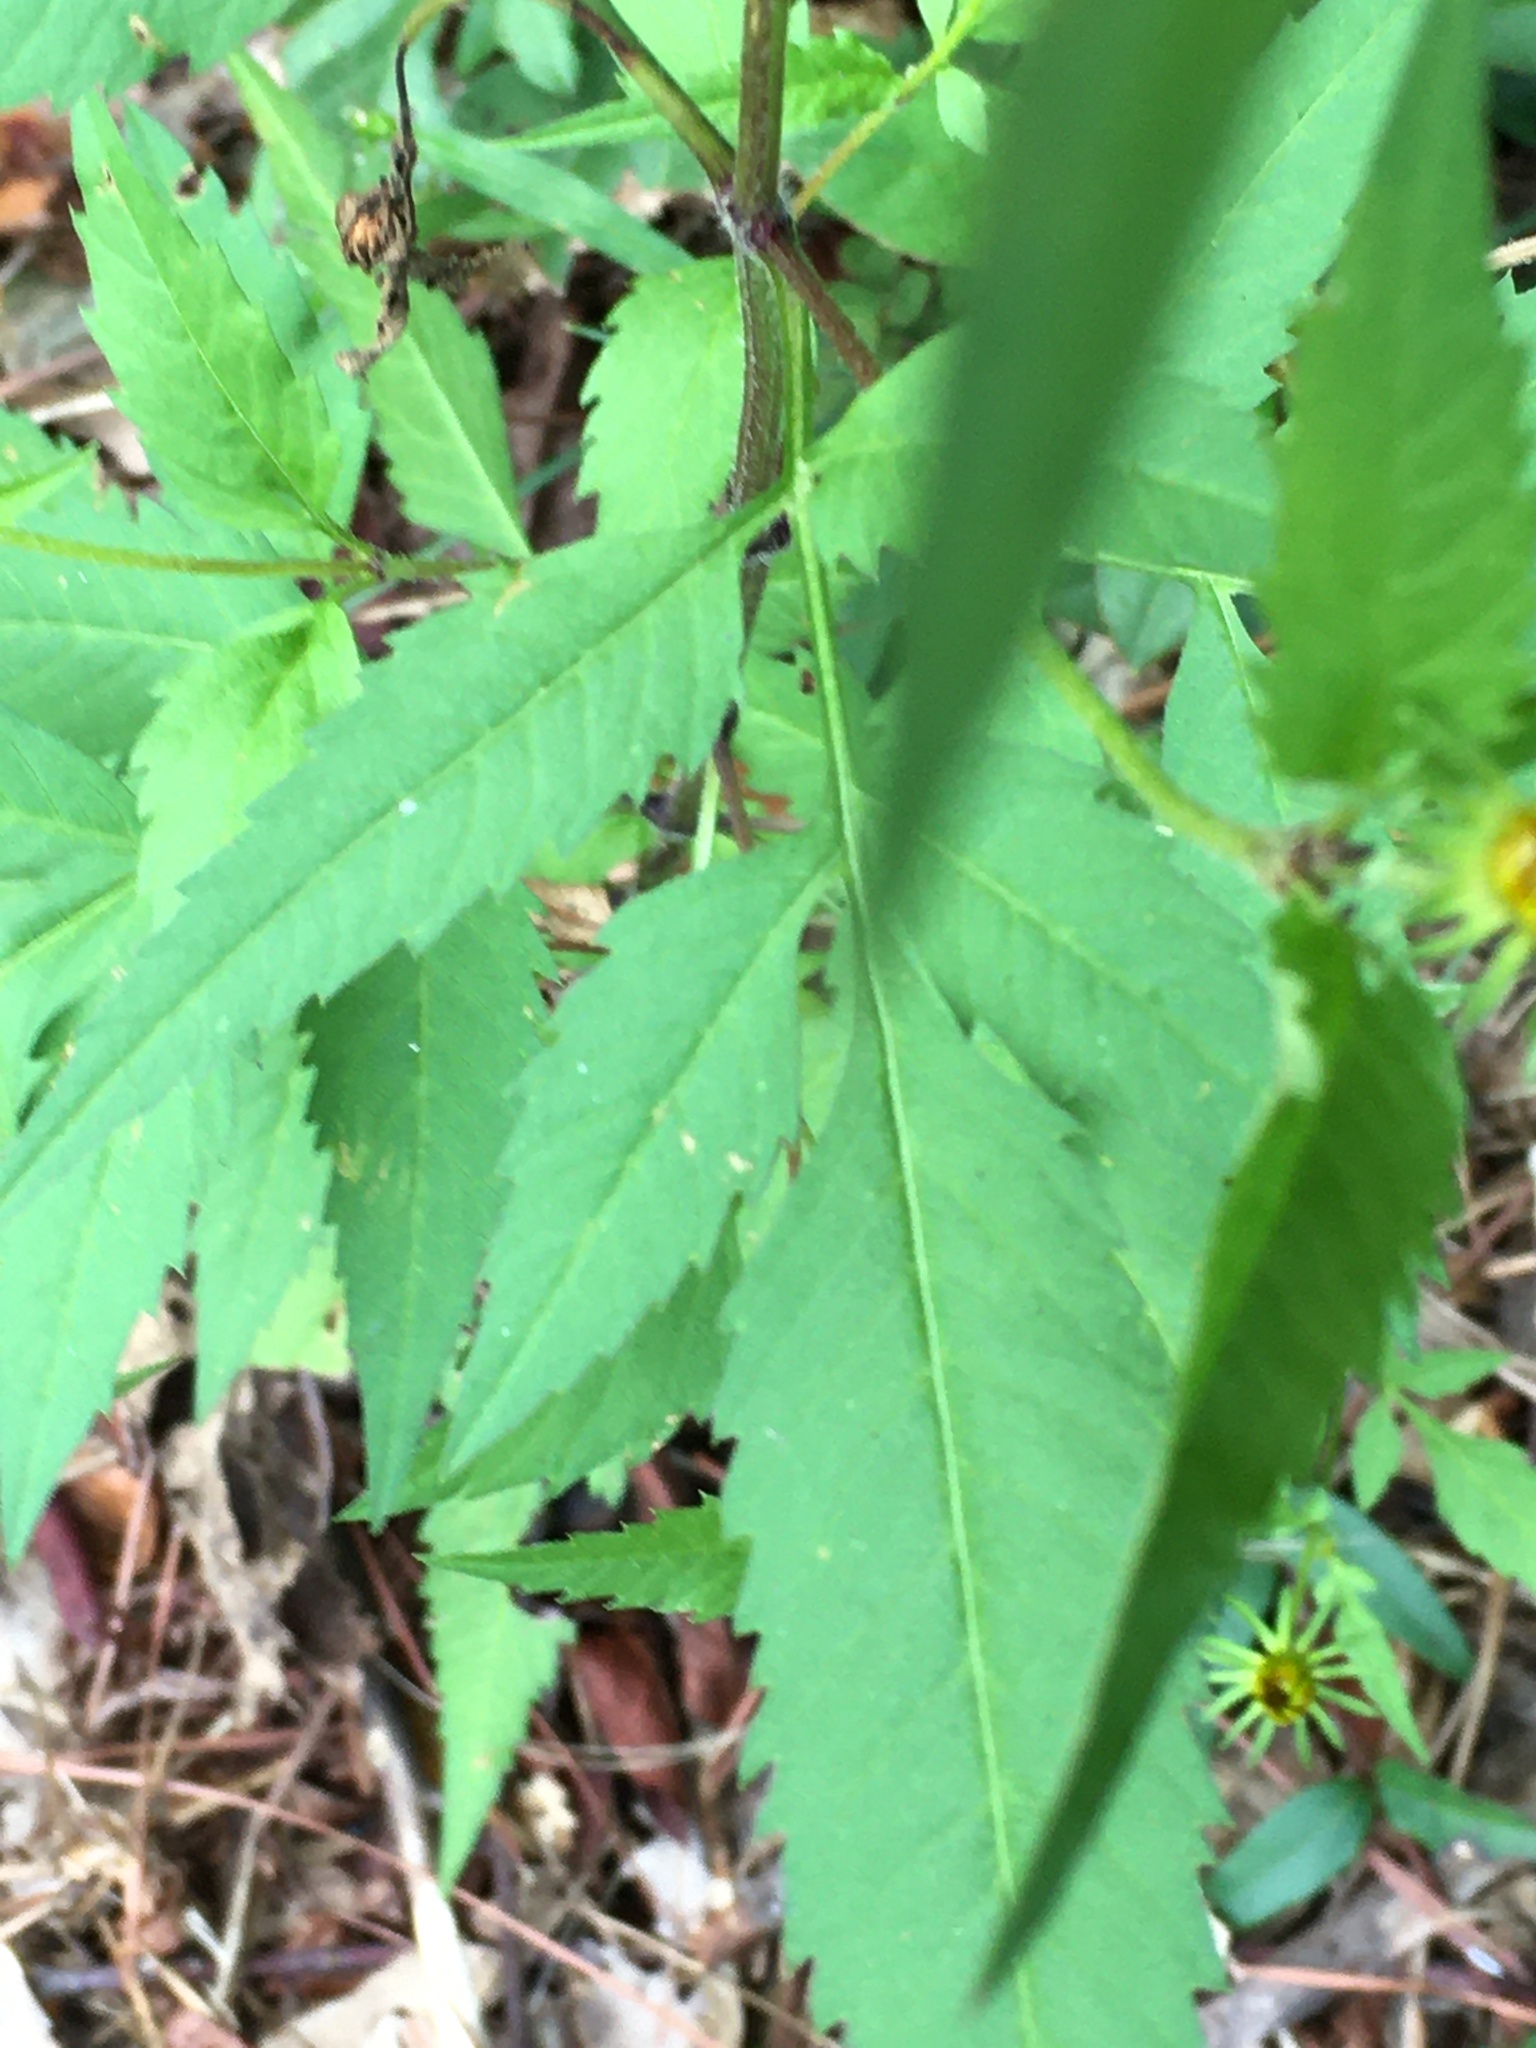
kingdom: Plantae
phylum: Tracheophyta
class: Magnoliopsida
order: Asterales
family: Asteraceae
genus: Bidens
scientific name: Bidens aristosa
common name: Western tickseed
